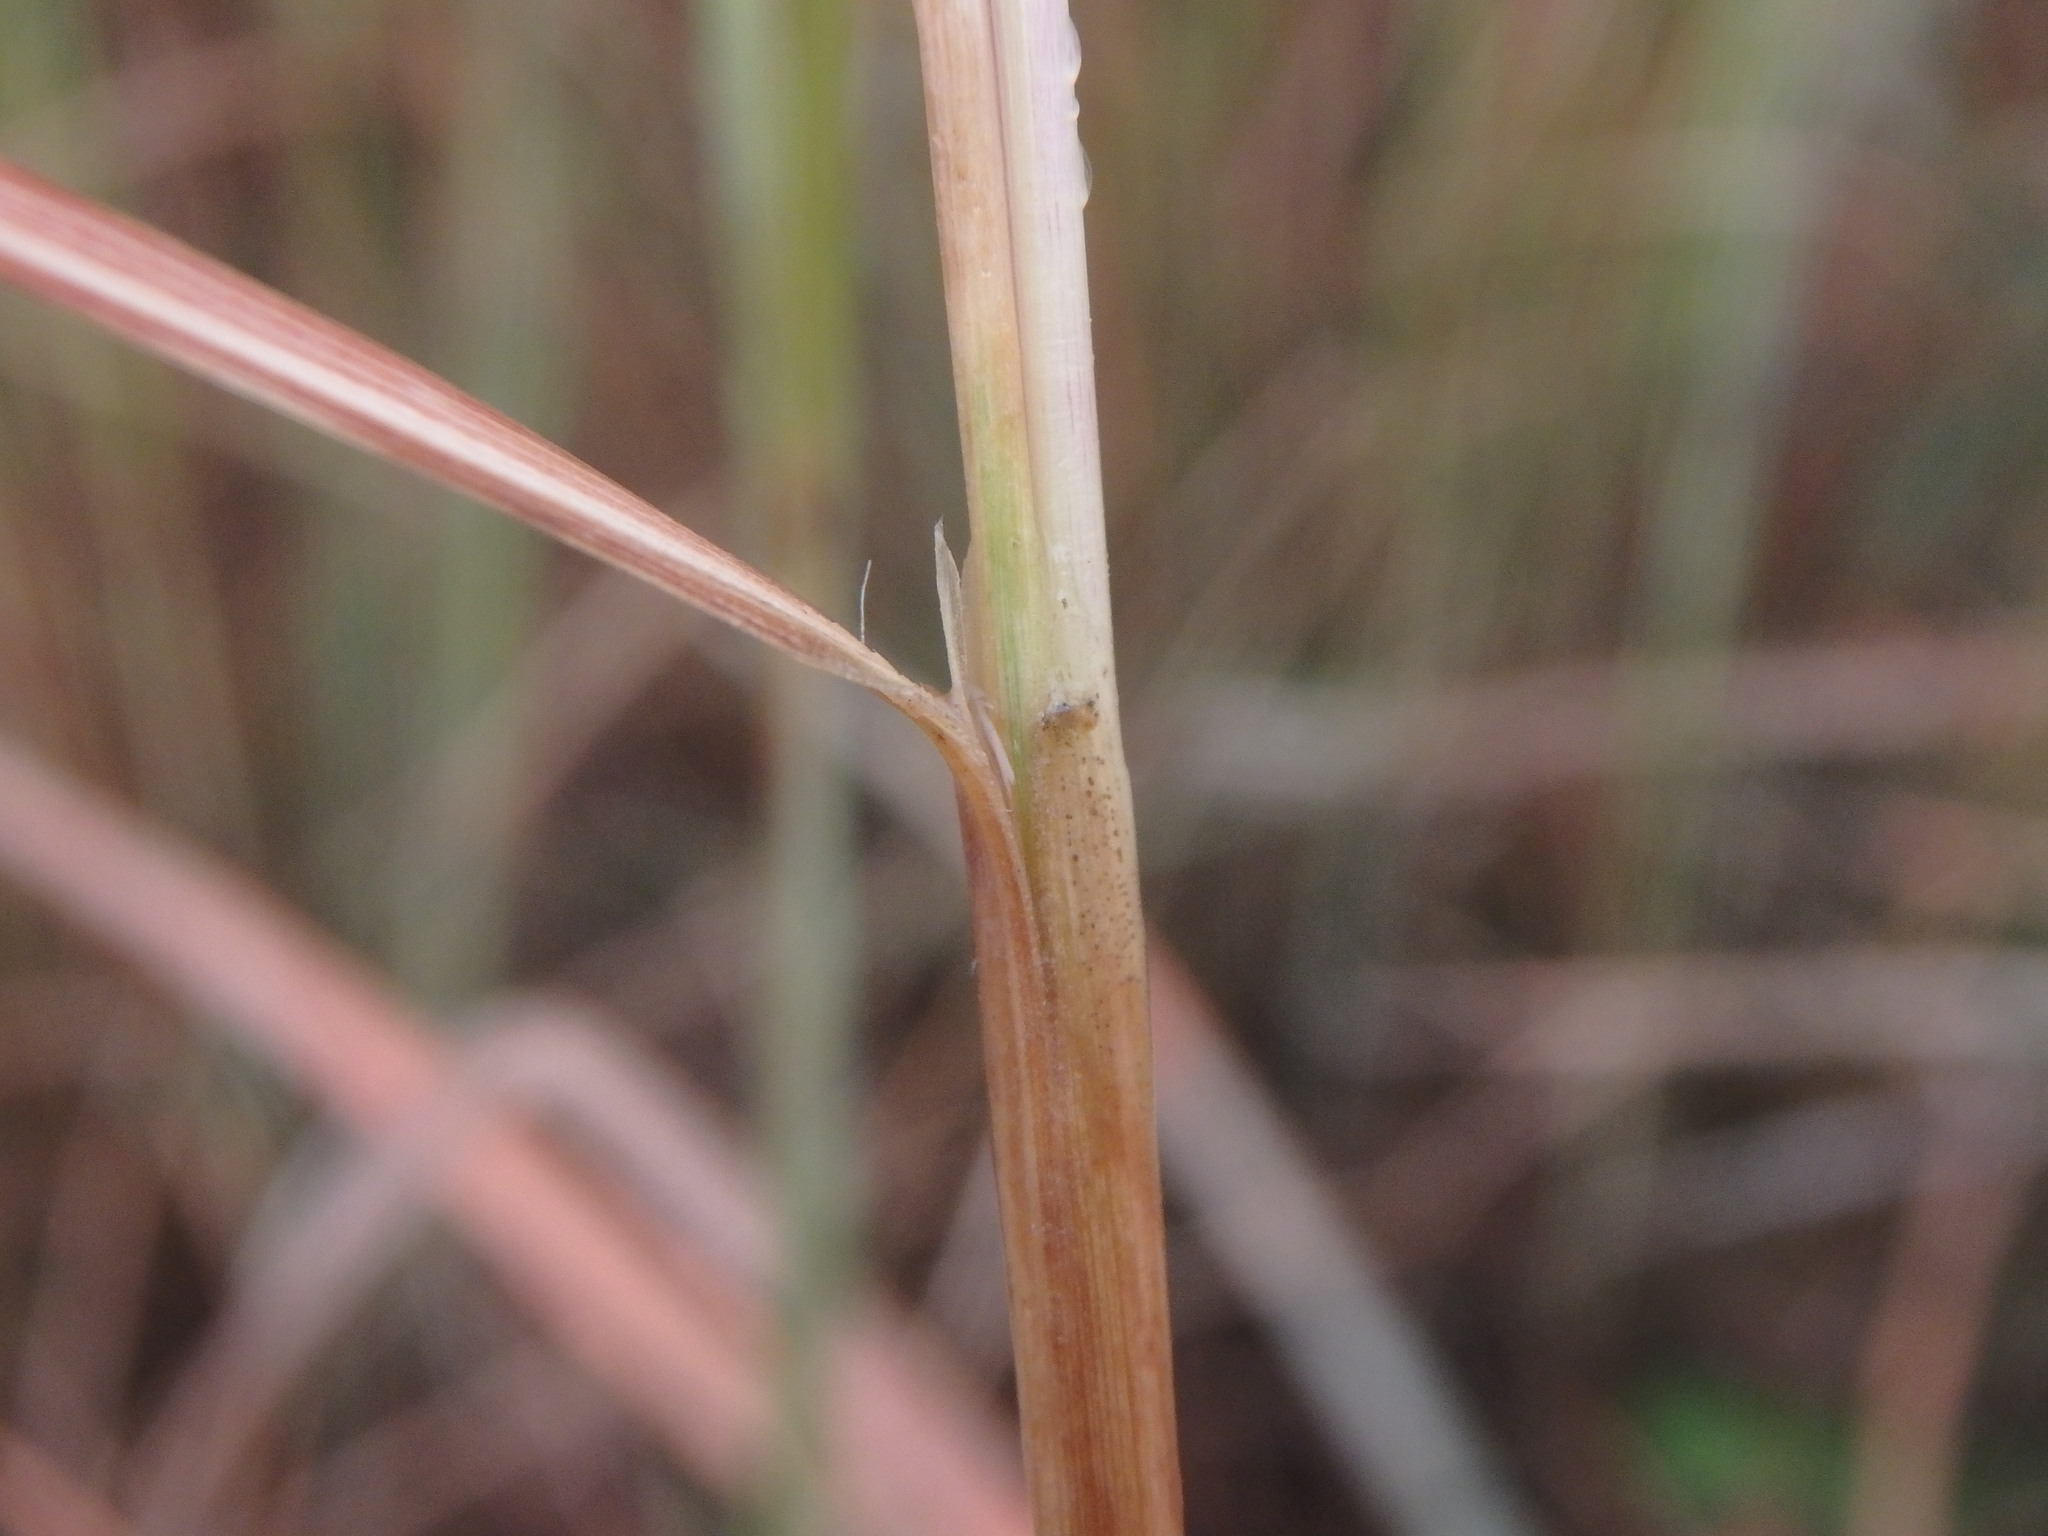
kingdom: Plantae
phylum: Tracheophyta
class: Liliopsida
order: Poales
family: Poaceae
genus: Hyparrhenia
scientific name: Hyparrhenia hirta
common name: Thatching grass
